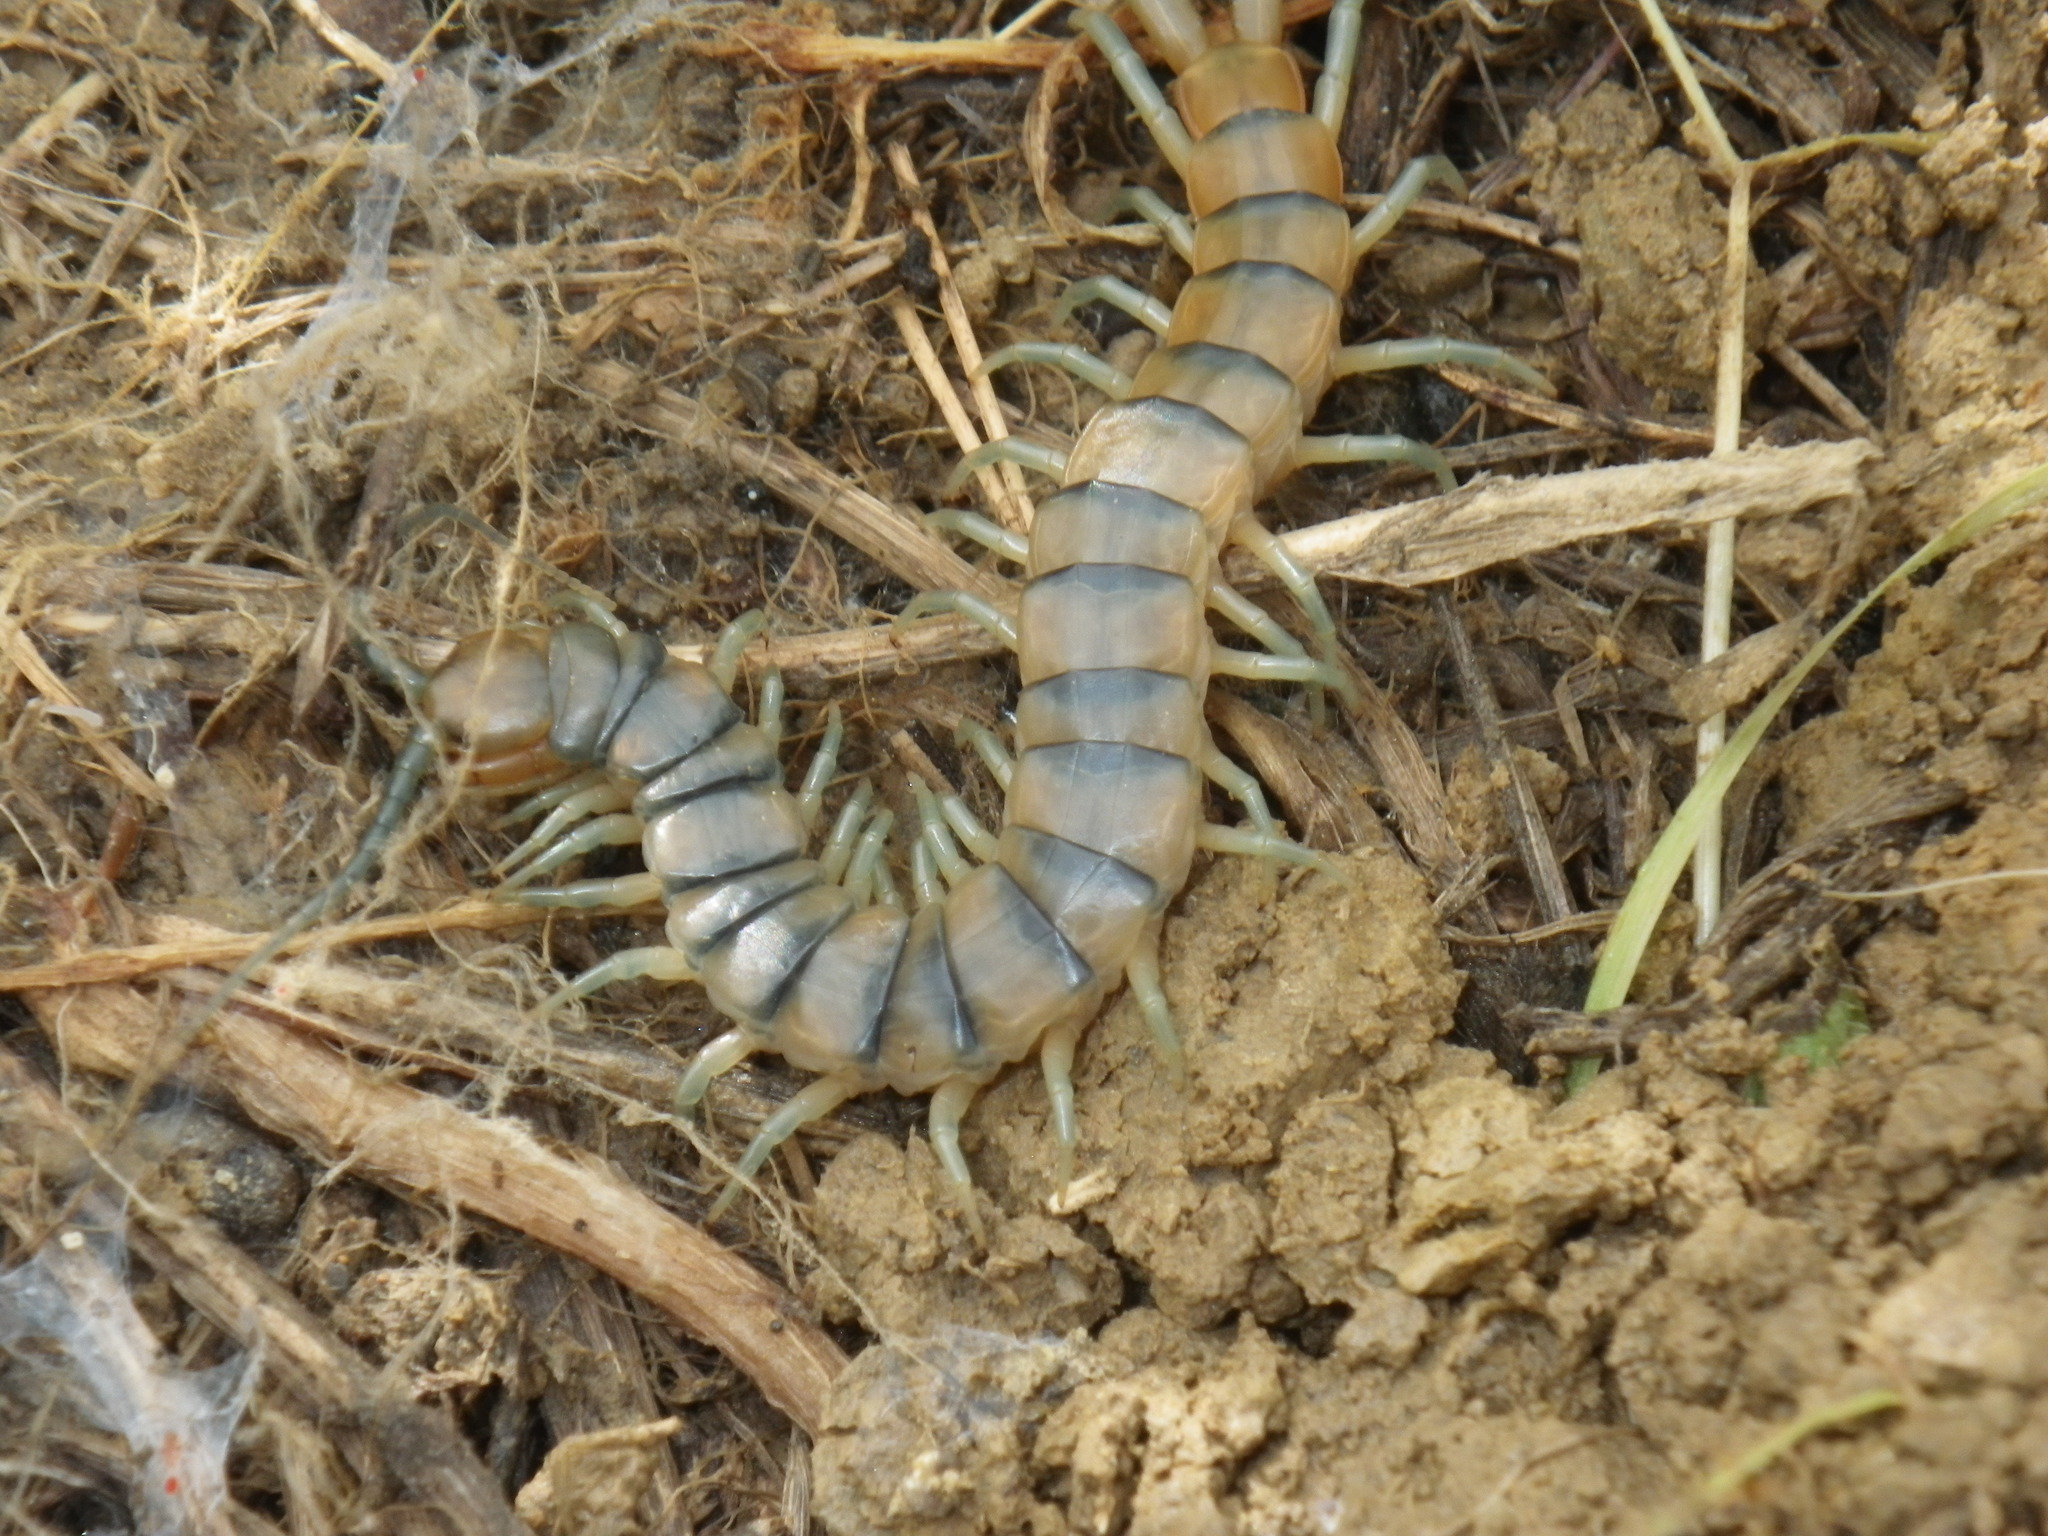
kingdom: Animalia
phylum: Arthropoda
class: Chilopoda
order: Scolopendromorpha
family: Scolopendridae
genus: Scolopendra
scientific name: Scolopendra polymorpha
